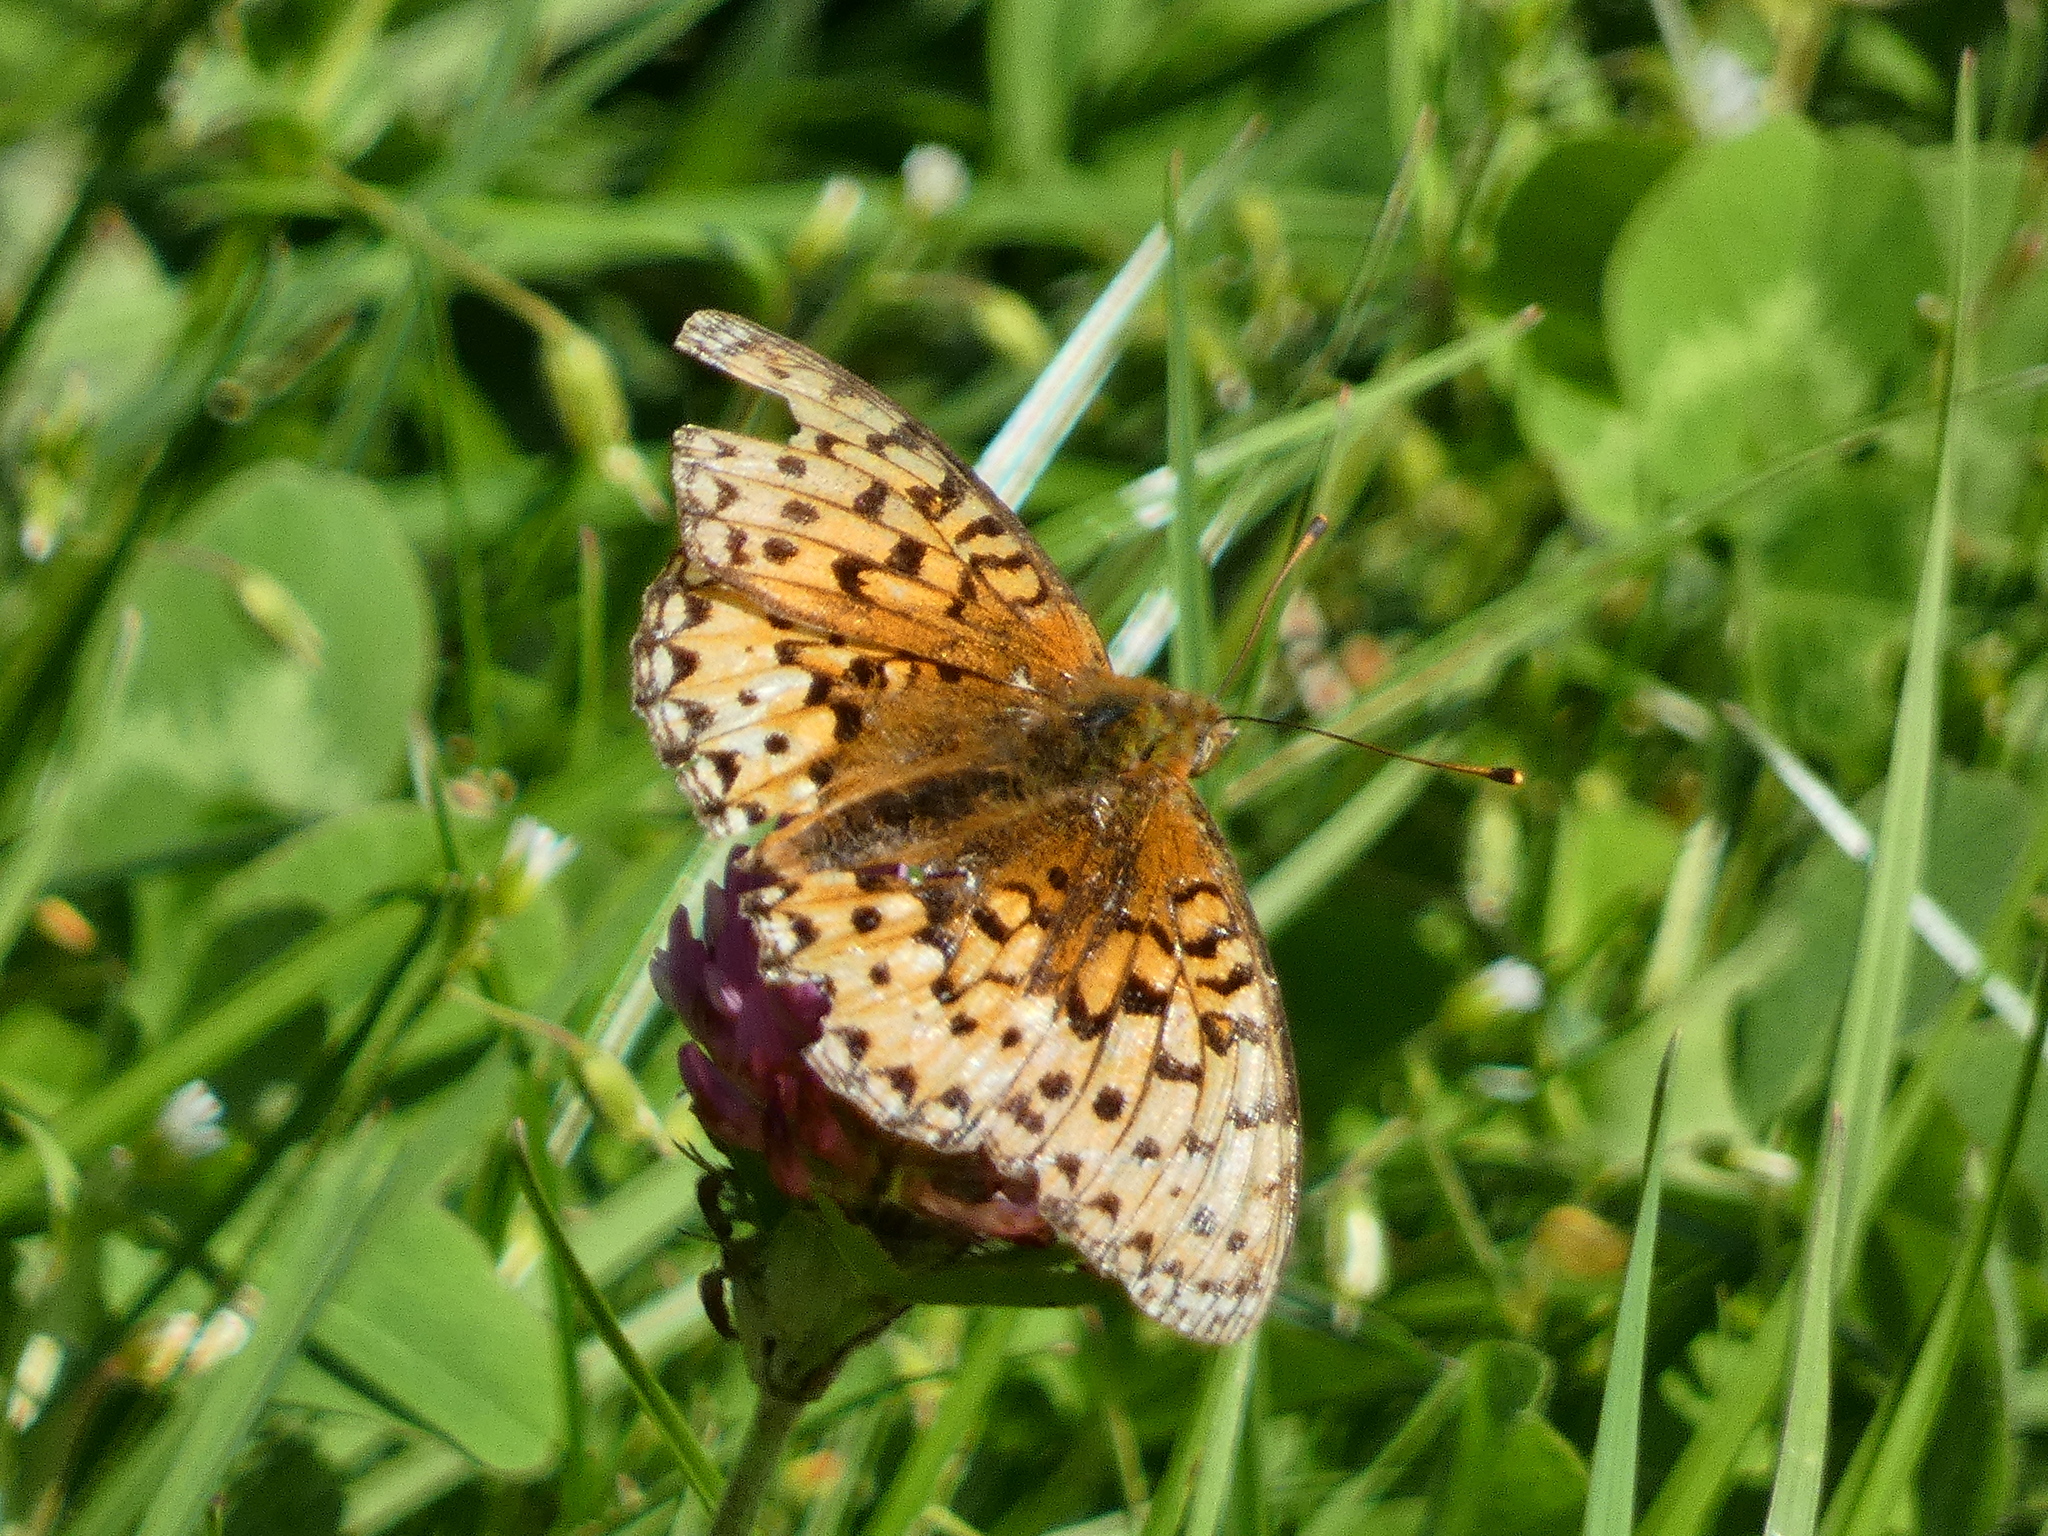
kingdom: Animalia
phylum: Arthropoda
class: Insecta
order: Lepidoptera
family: Nymphalidae
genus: Speyeria
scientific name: Speyeria aglaja
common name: Dark green fritillary
